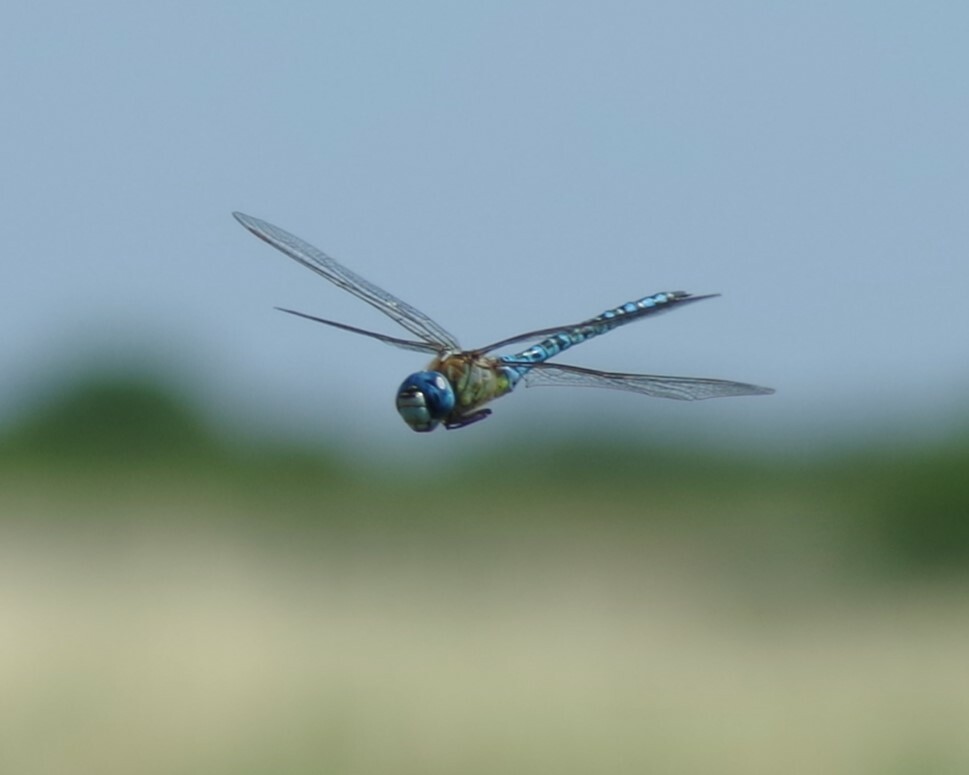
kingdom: Animalia
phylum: Arthropoda
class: Insecta
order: Odonata
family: Aeshnidae
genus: Aeshna
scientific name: Aeshna affinis
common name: Southern migrant hawker
